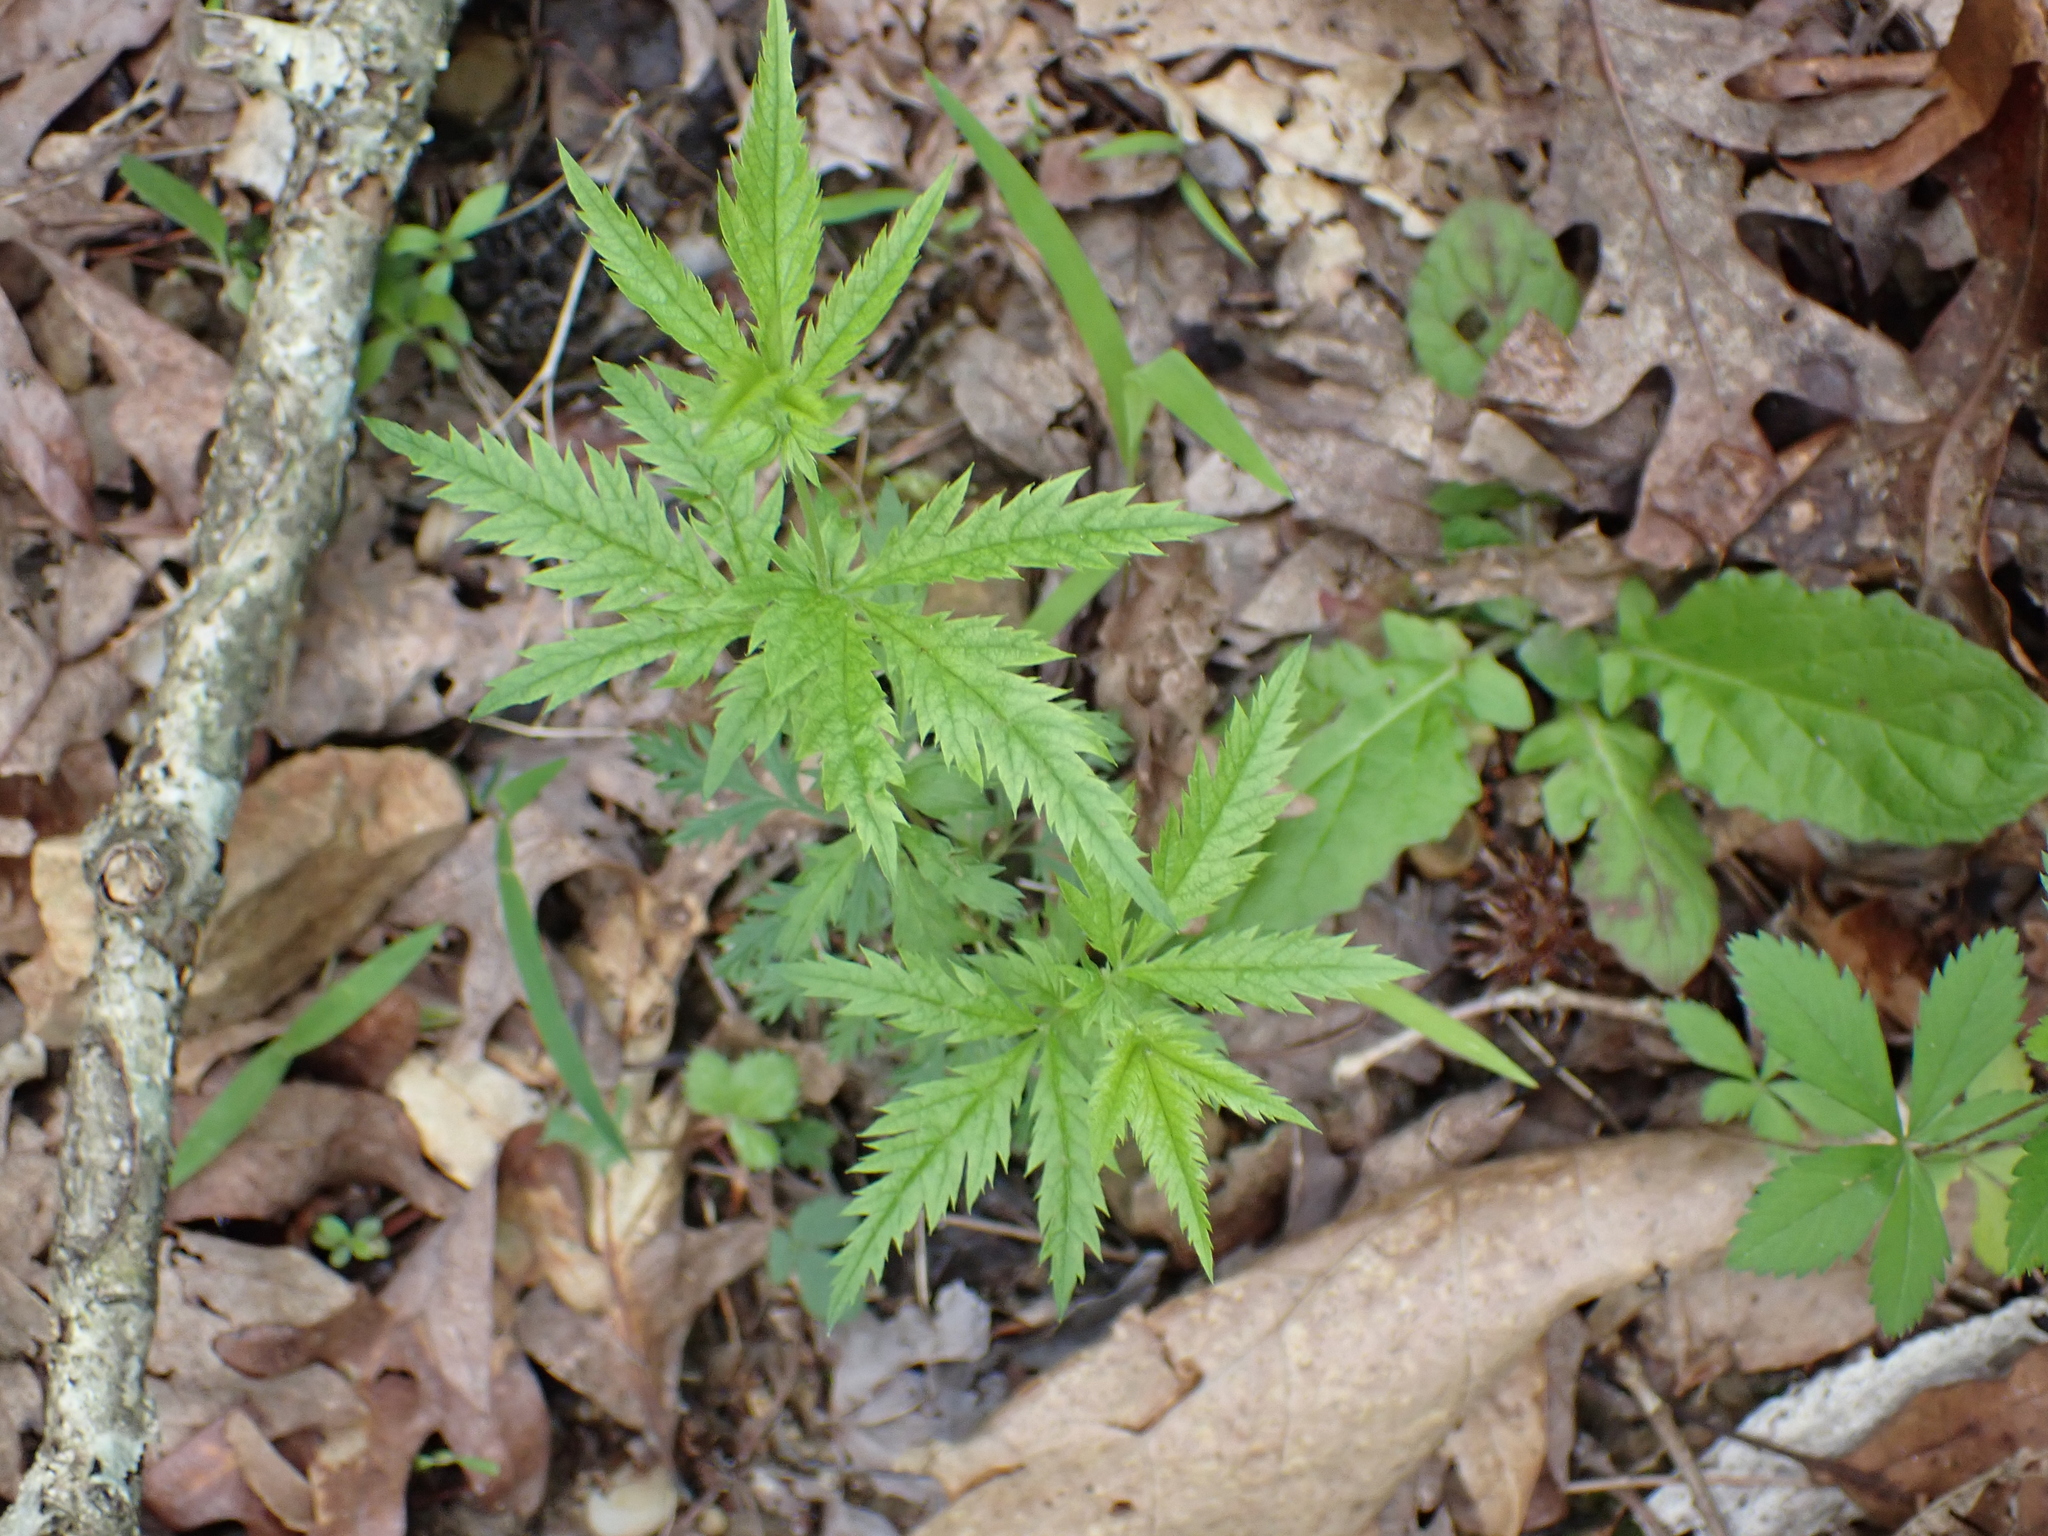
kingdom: Plantae
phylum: Tracheophyta
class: Magnoliopsida
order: Rosales
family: Rosaceae
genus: Gillenia
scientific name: Gillenia stipulata
